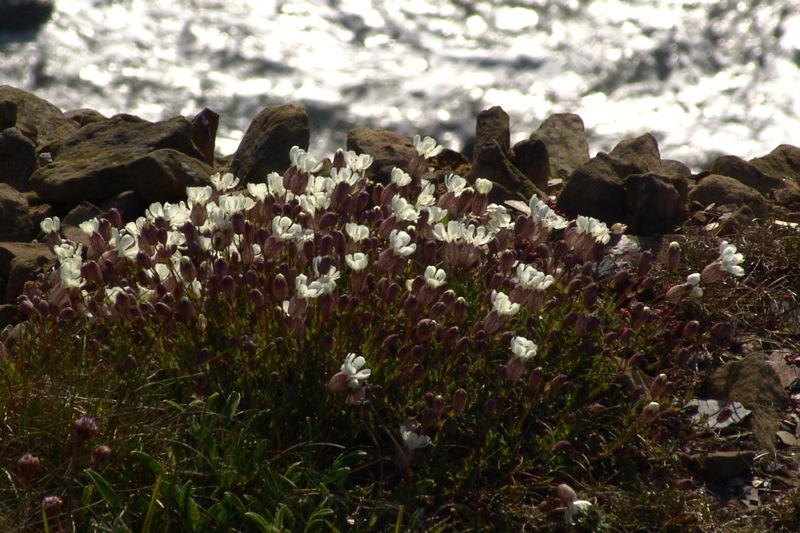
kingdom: Plantae
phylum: Tracheophyta
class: Magnoliopsida
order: Caryophyllales
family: Caryophyllaceae
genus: Silene
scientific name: Silene uniflora
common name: Sea campion
